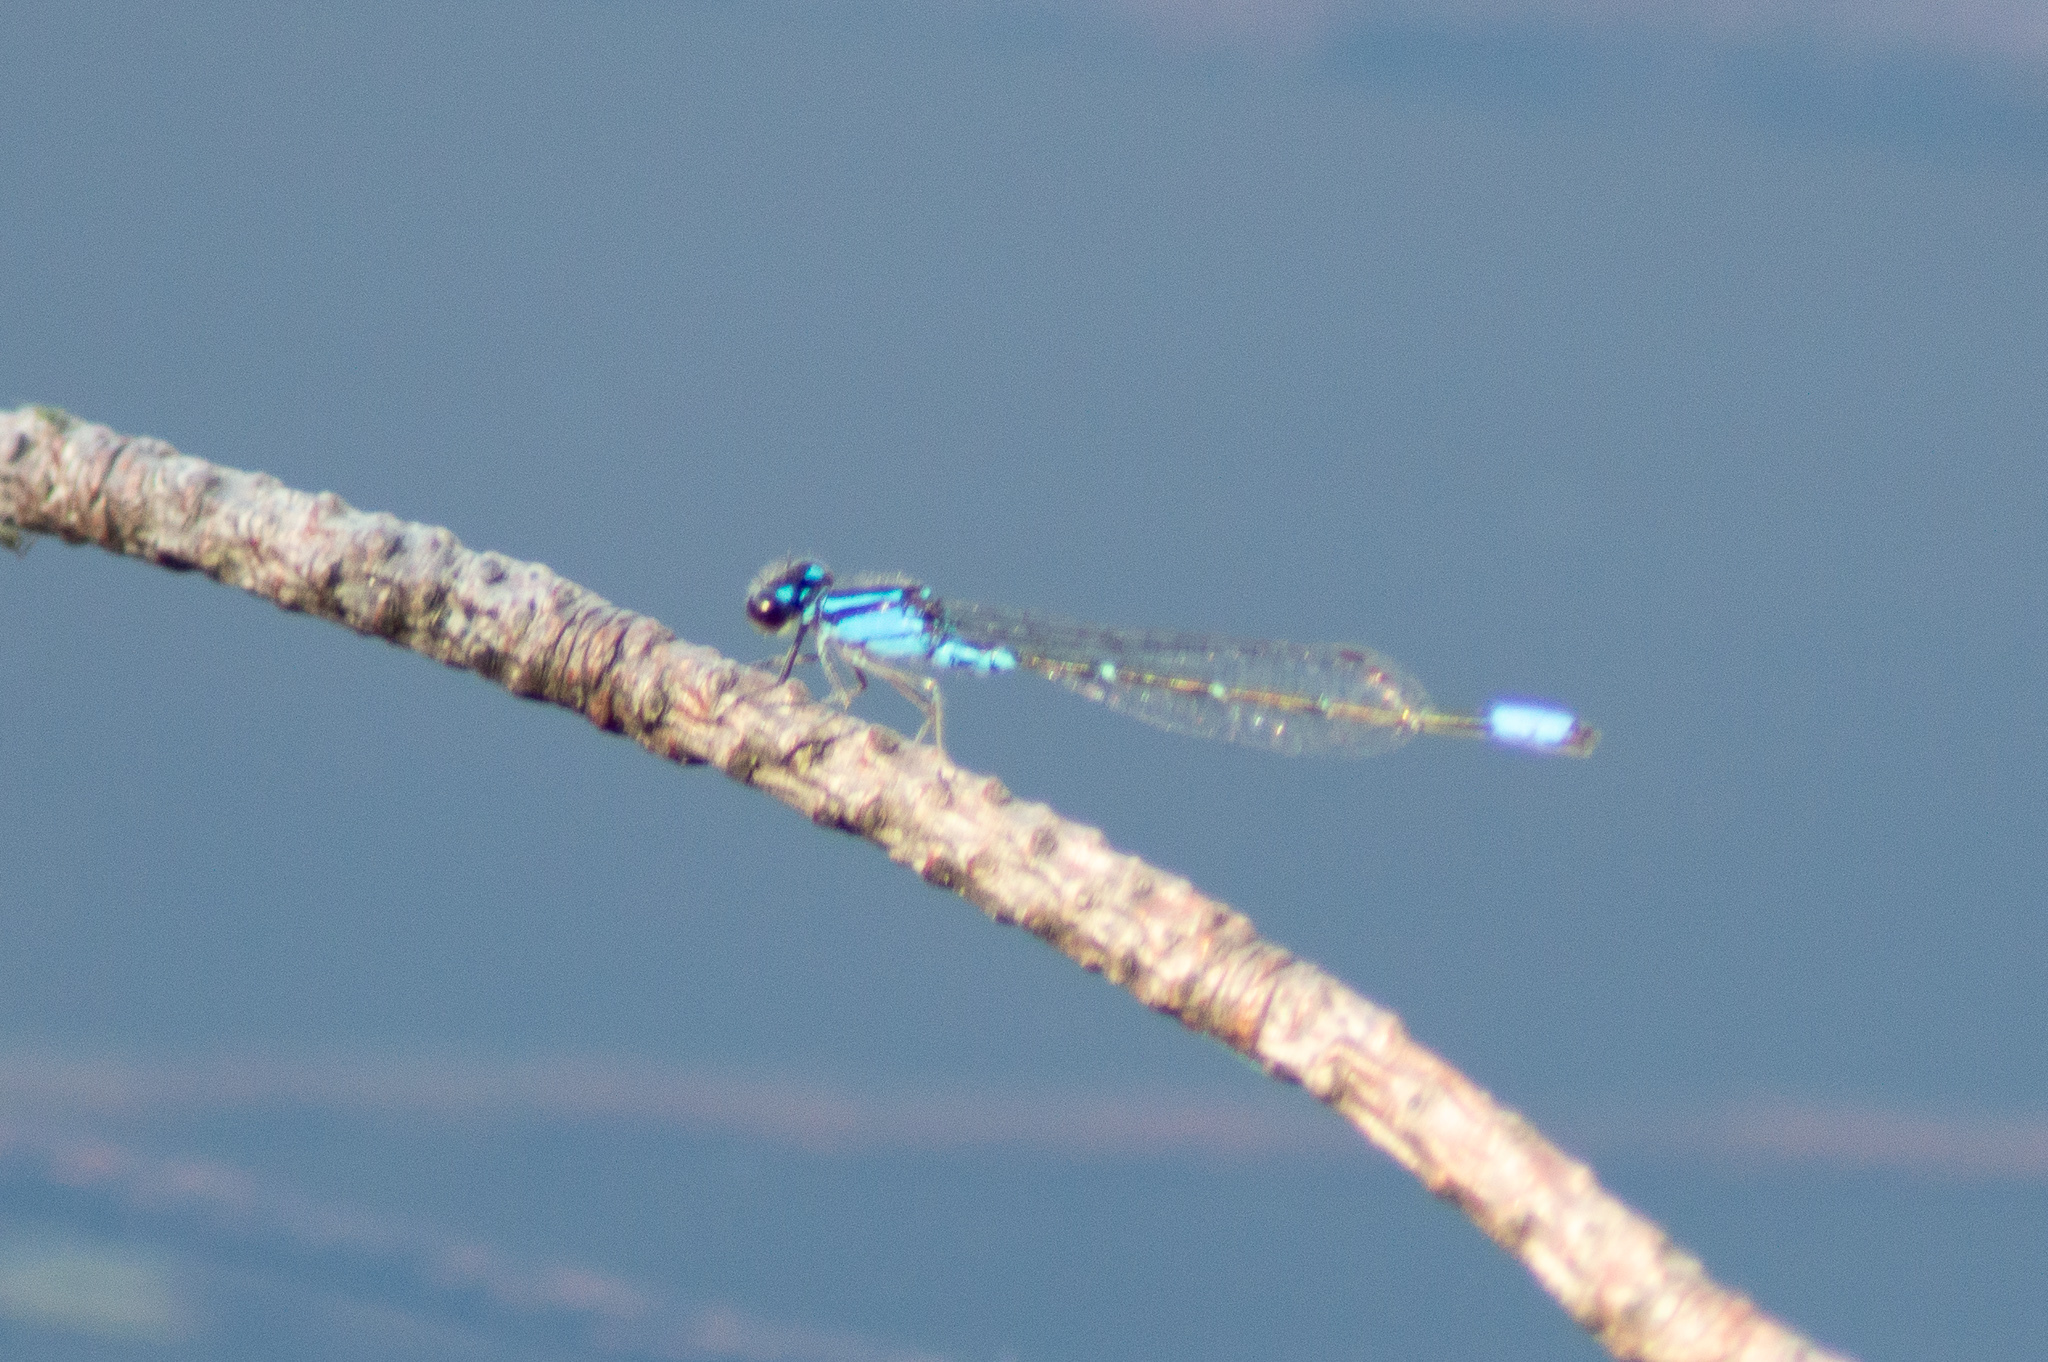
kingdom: Animalia
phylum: Arthropoda
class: Insecta
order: Odonata
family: Coenagrionidae
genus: Enallagma
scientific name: Enallagma geminatum
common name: Skimming bluet
